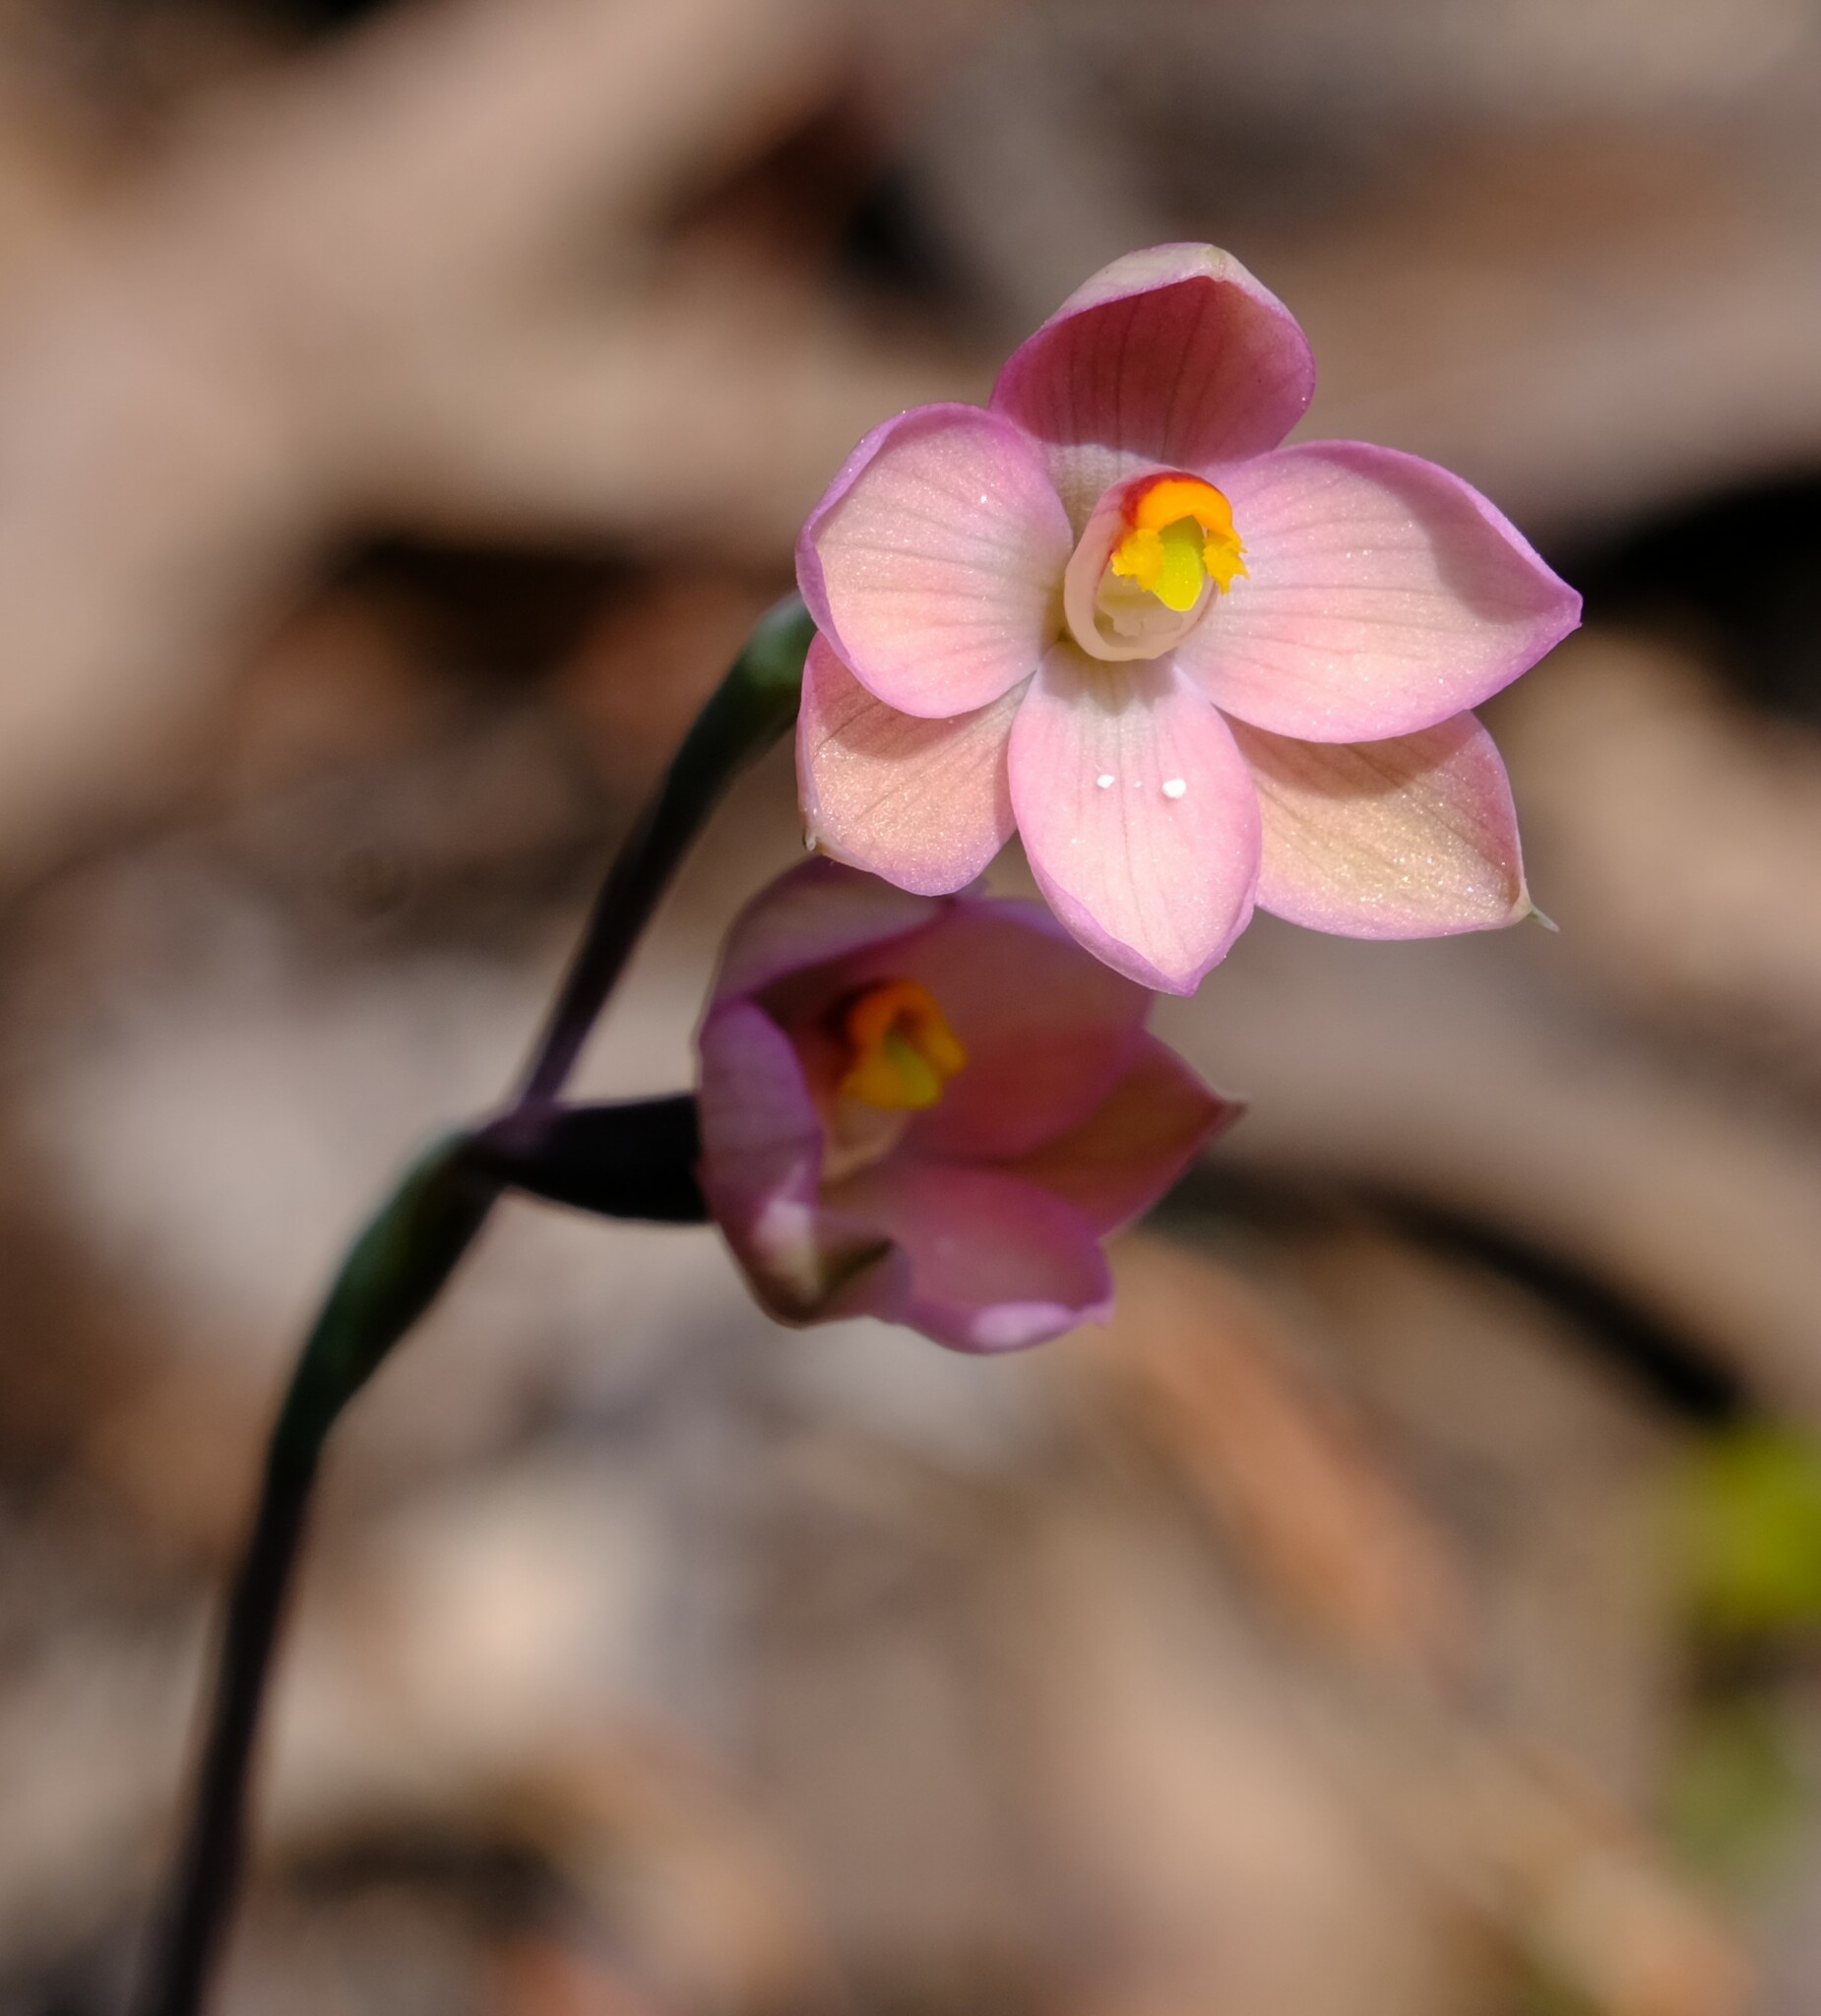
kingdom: Plantae
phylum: Tracheophyta
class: Liliopsida
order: Asparagales
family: Orchidaceae
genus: Thelymitra
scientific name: Thelymitra rubra
